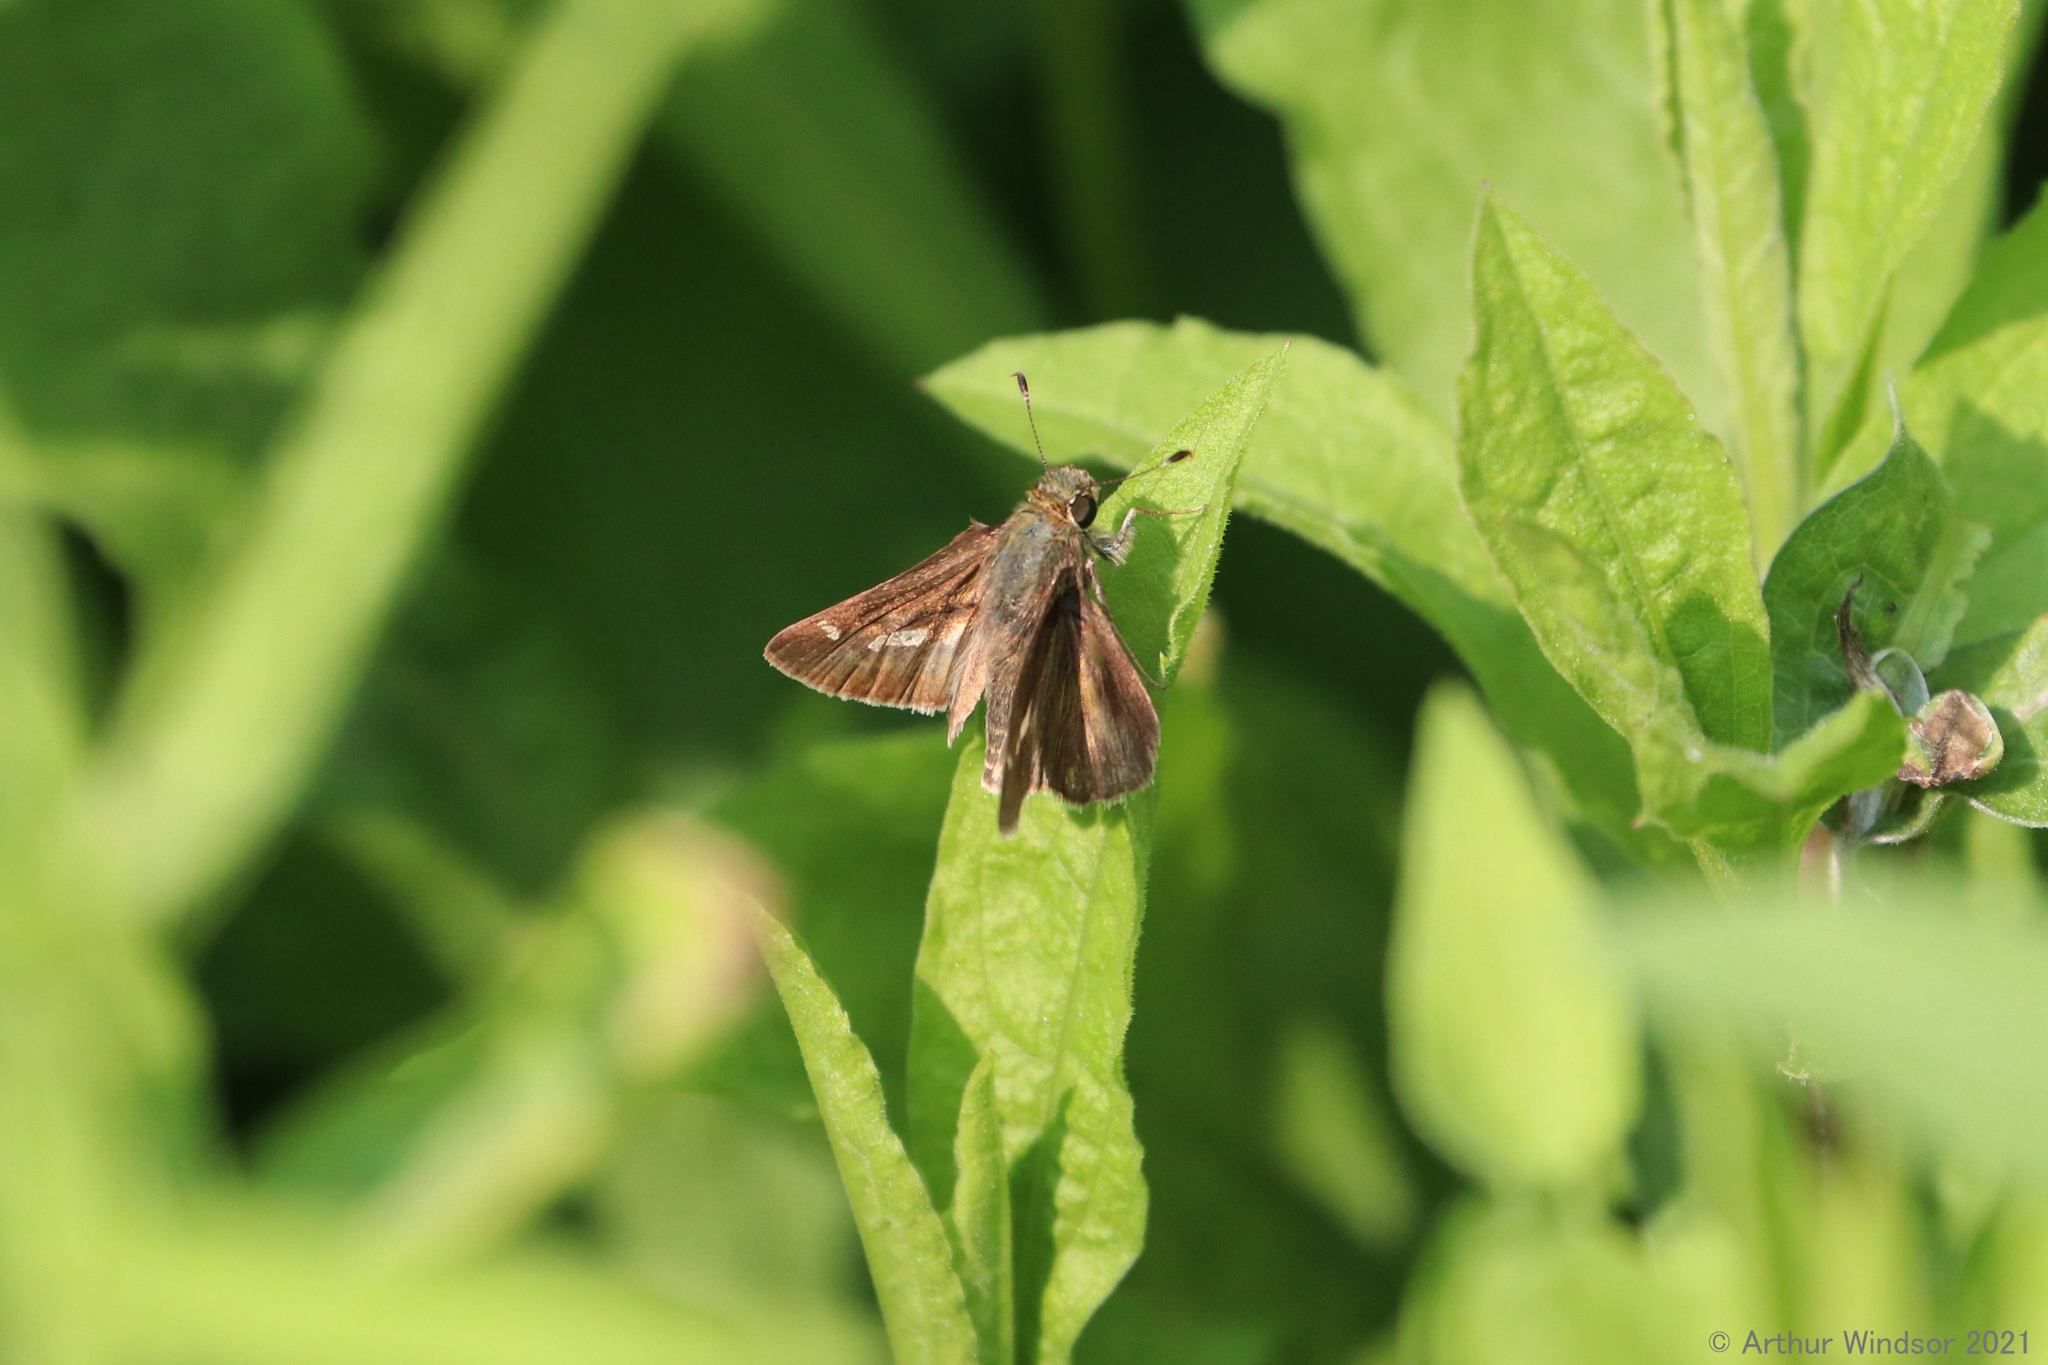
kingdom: Animalia
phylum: Arthropoda
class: Insecta
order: Lepidoptera
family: Hesperiidae
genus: Vernia
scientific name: Vernia verna
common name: Little glassywing
